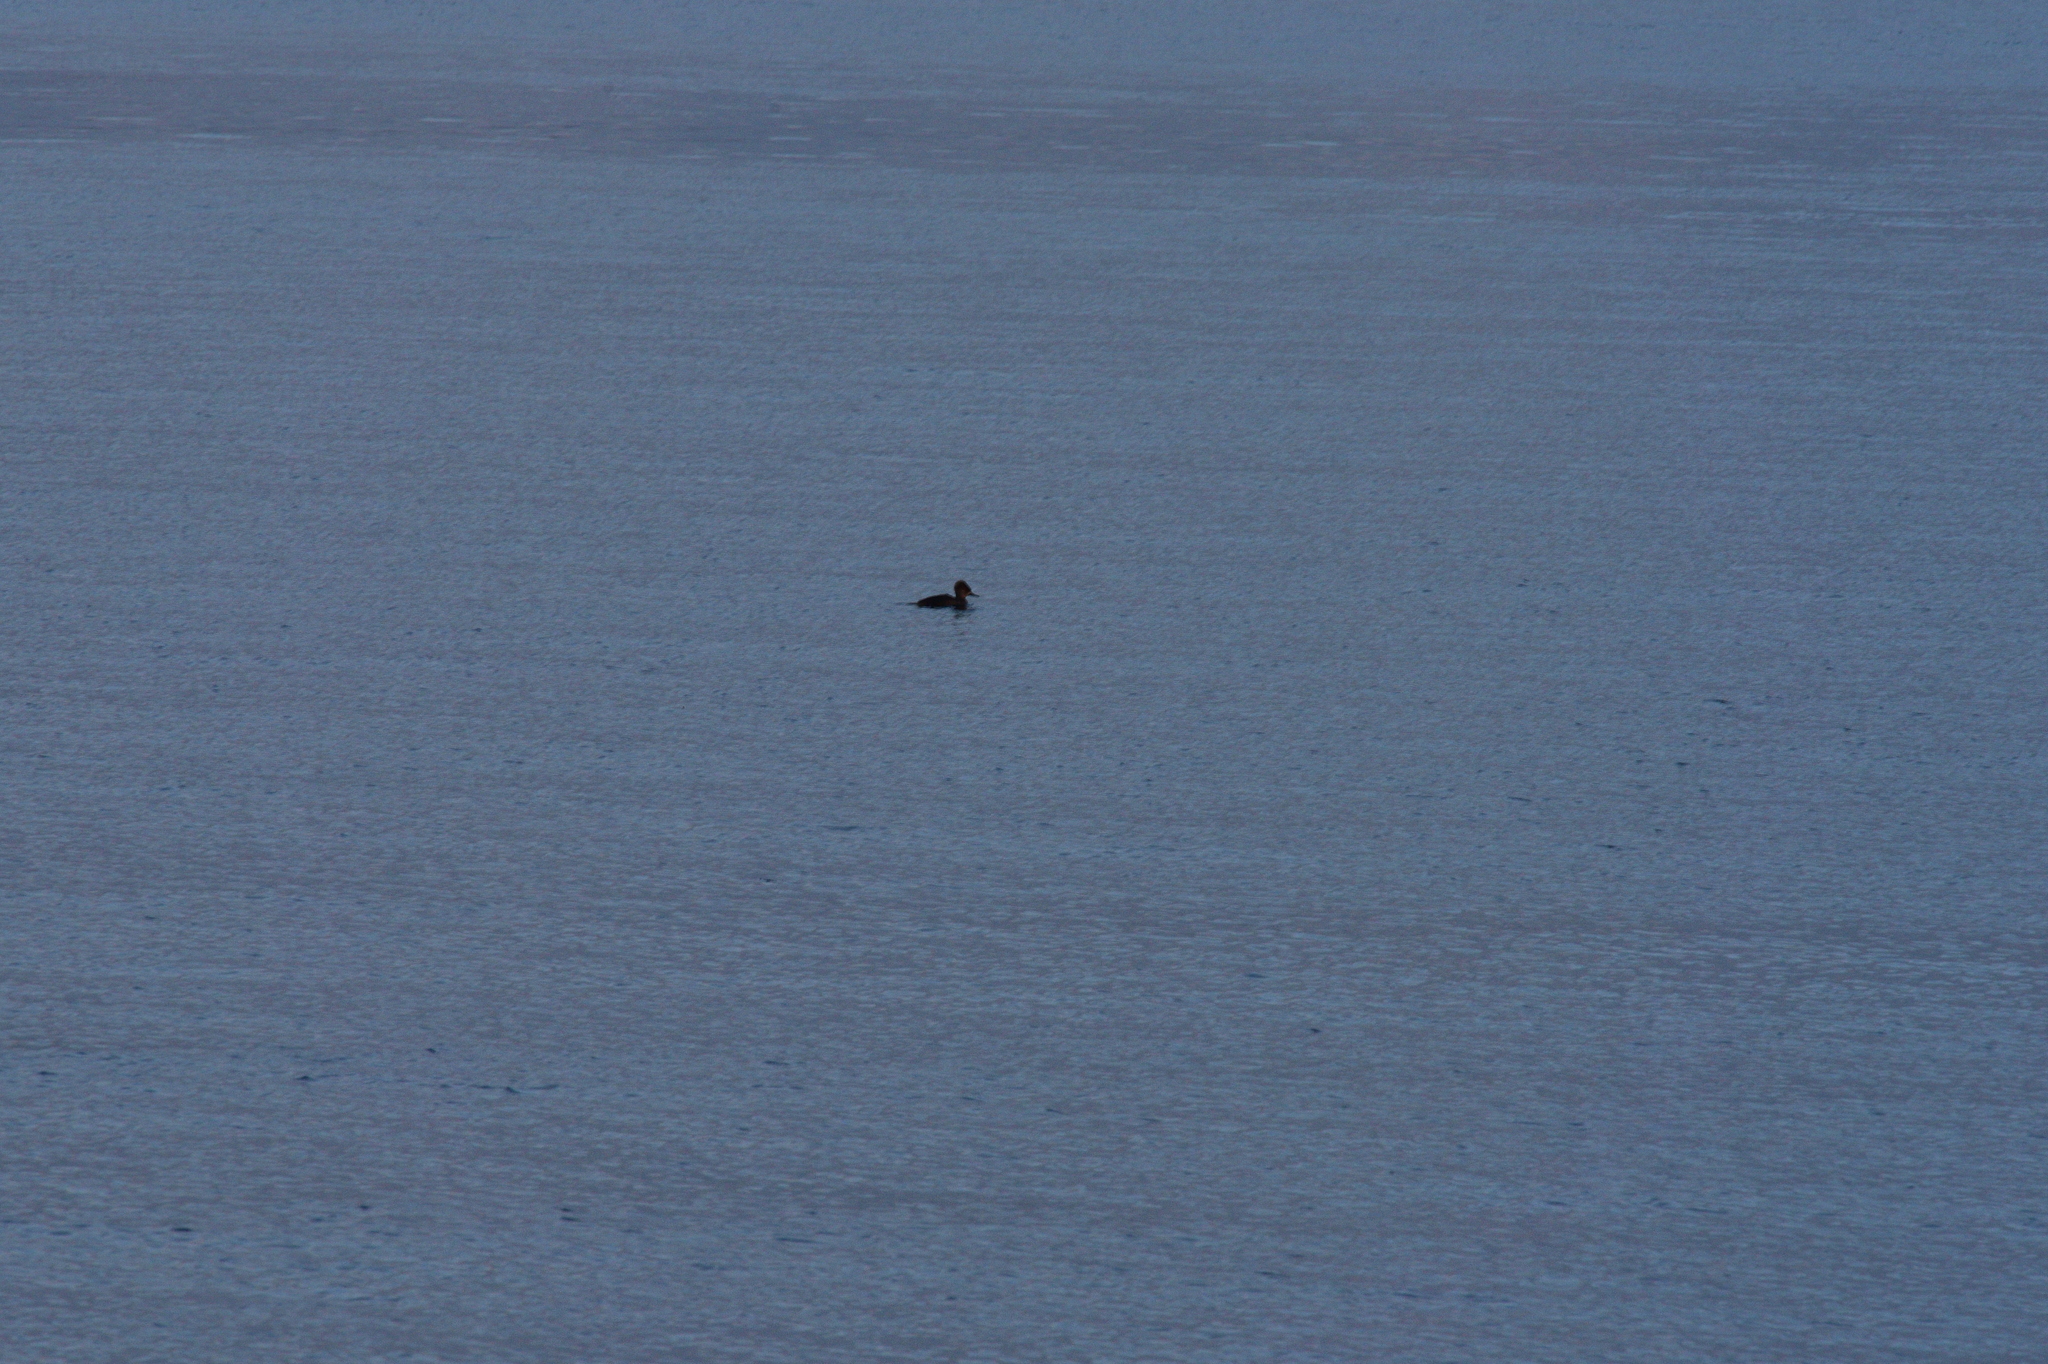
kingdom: Animalia
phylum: Chordata
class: Aves
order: Anseriformes
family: Anatidae
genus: Lophodytes
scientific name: Lophodytes cucullatus
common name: Hooded merganser
